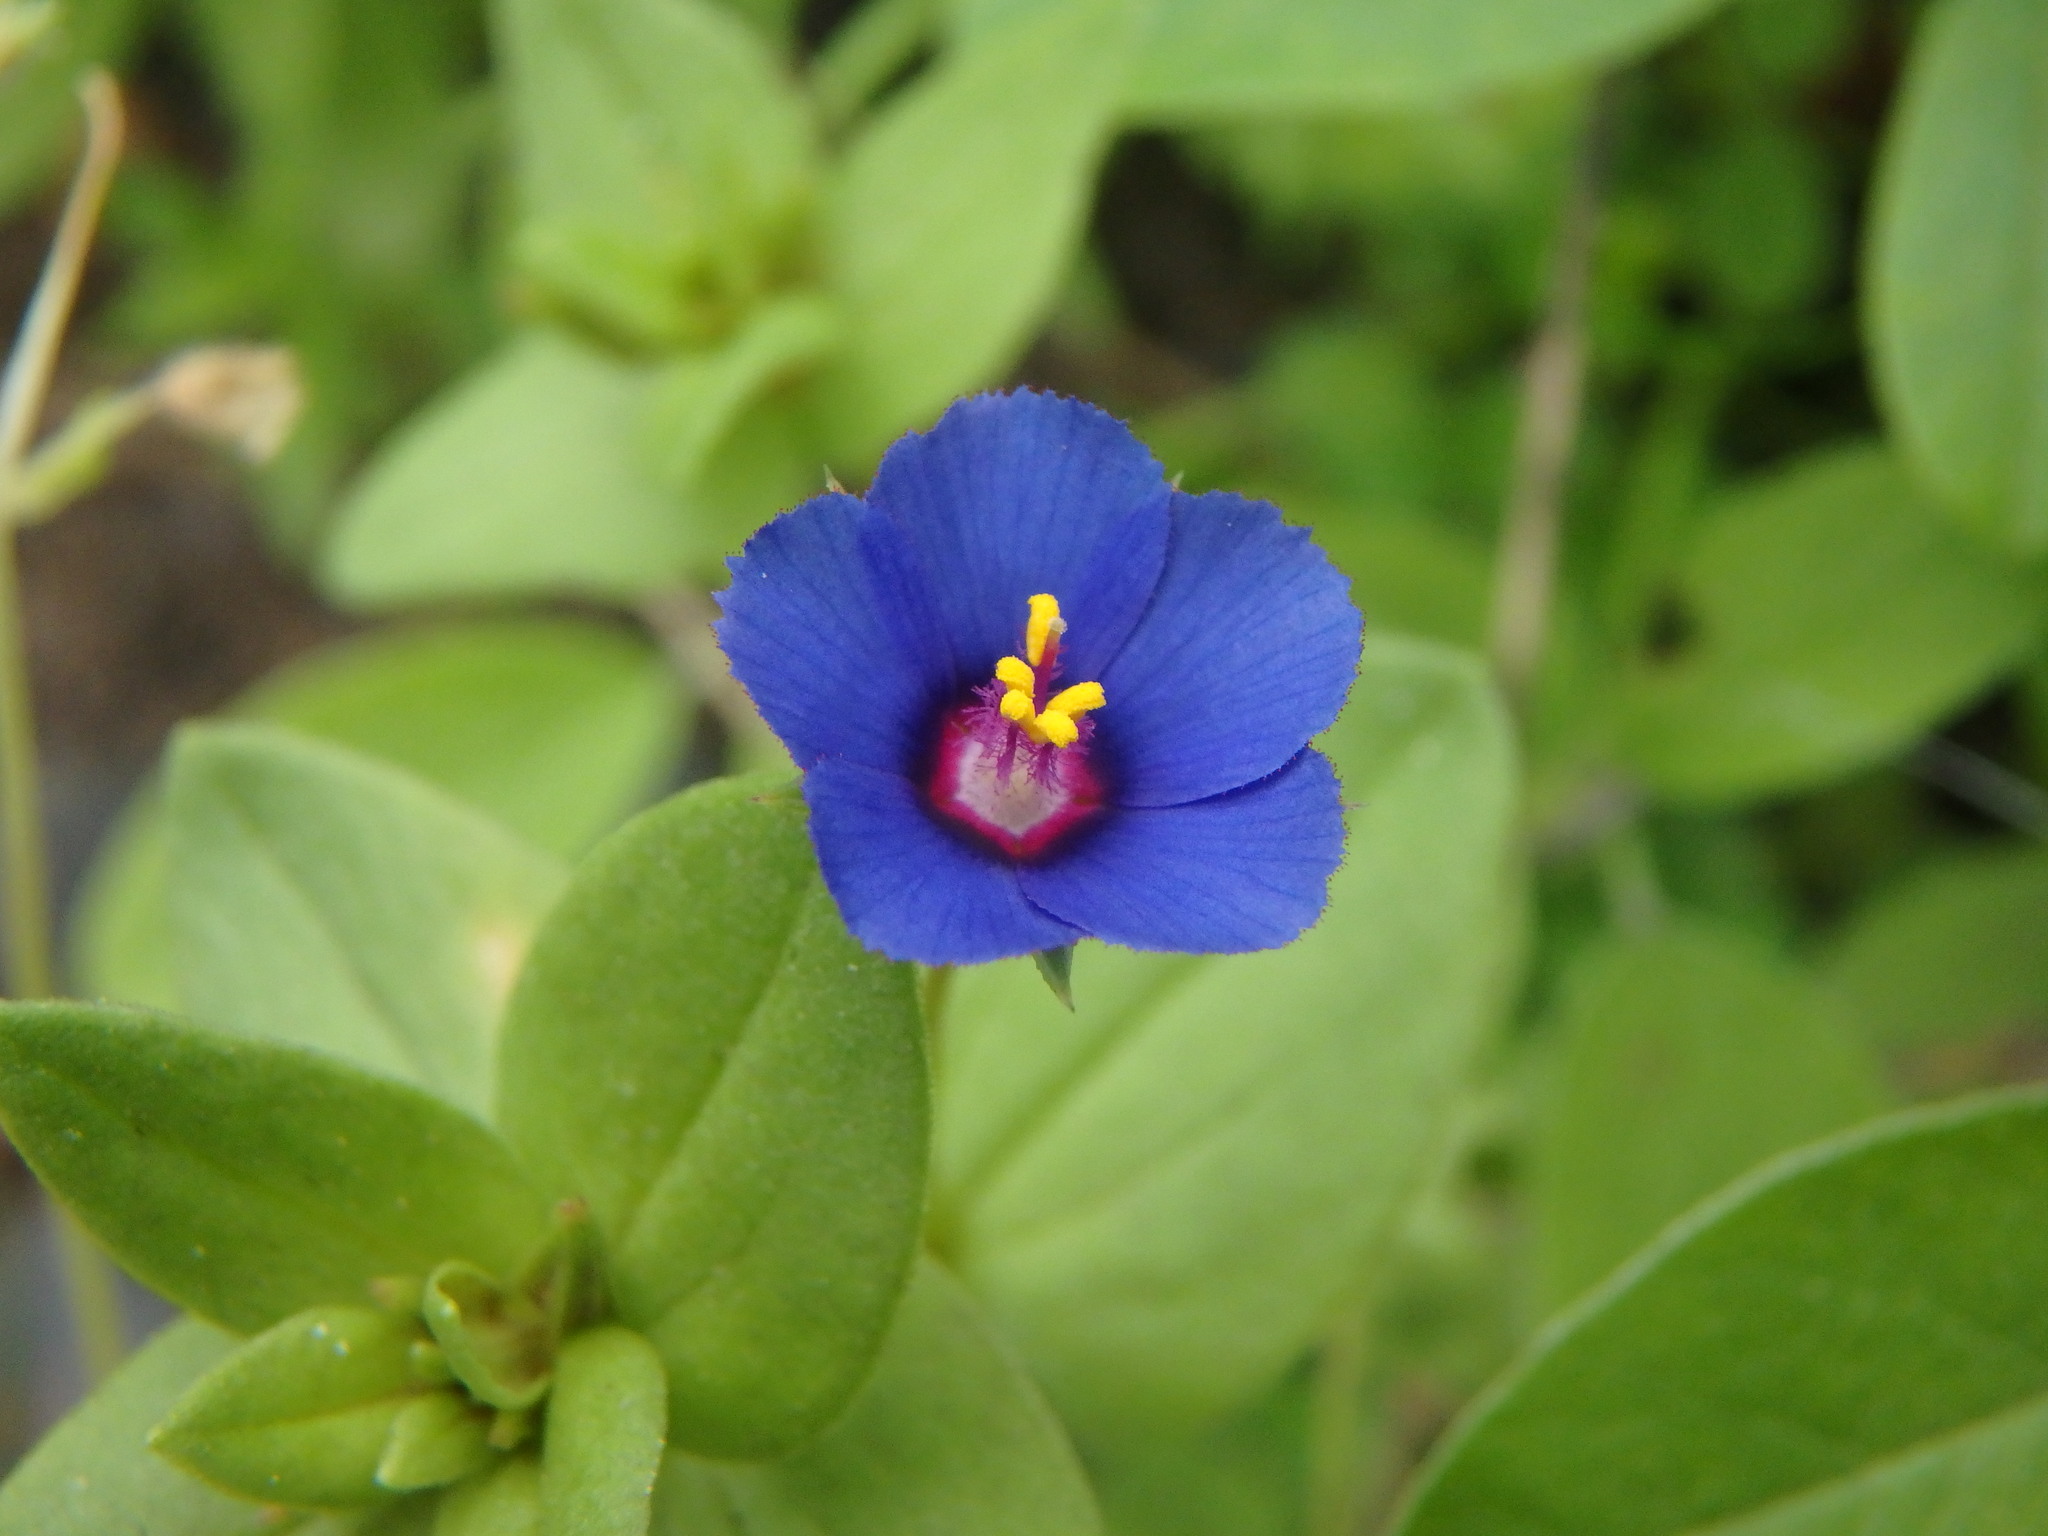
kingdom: Plantae
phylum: Tracheophyta
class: Magnoliopsida
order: Ericales
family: Primulaceae
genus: Lysimachia
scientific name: Lysimachia loeflingii
